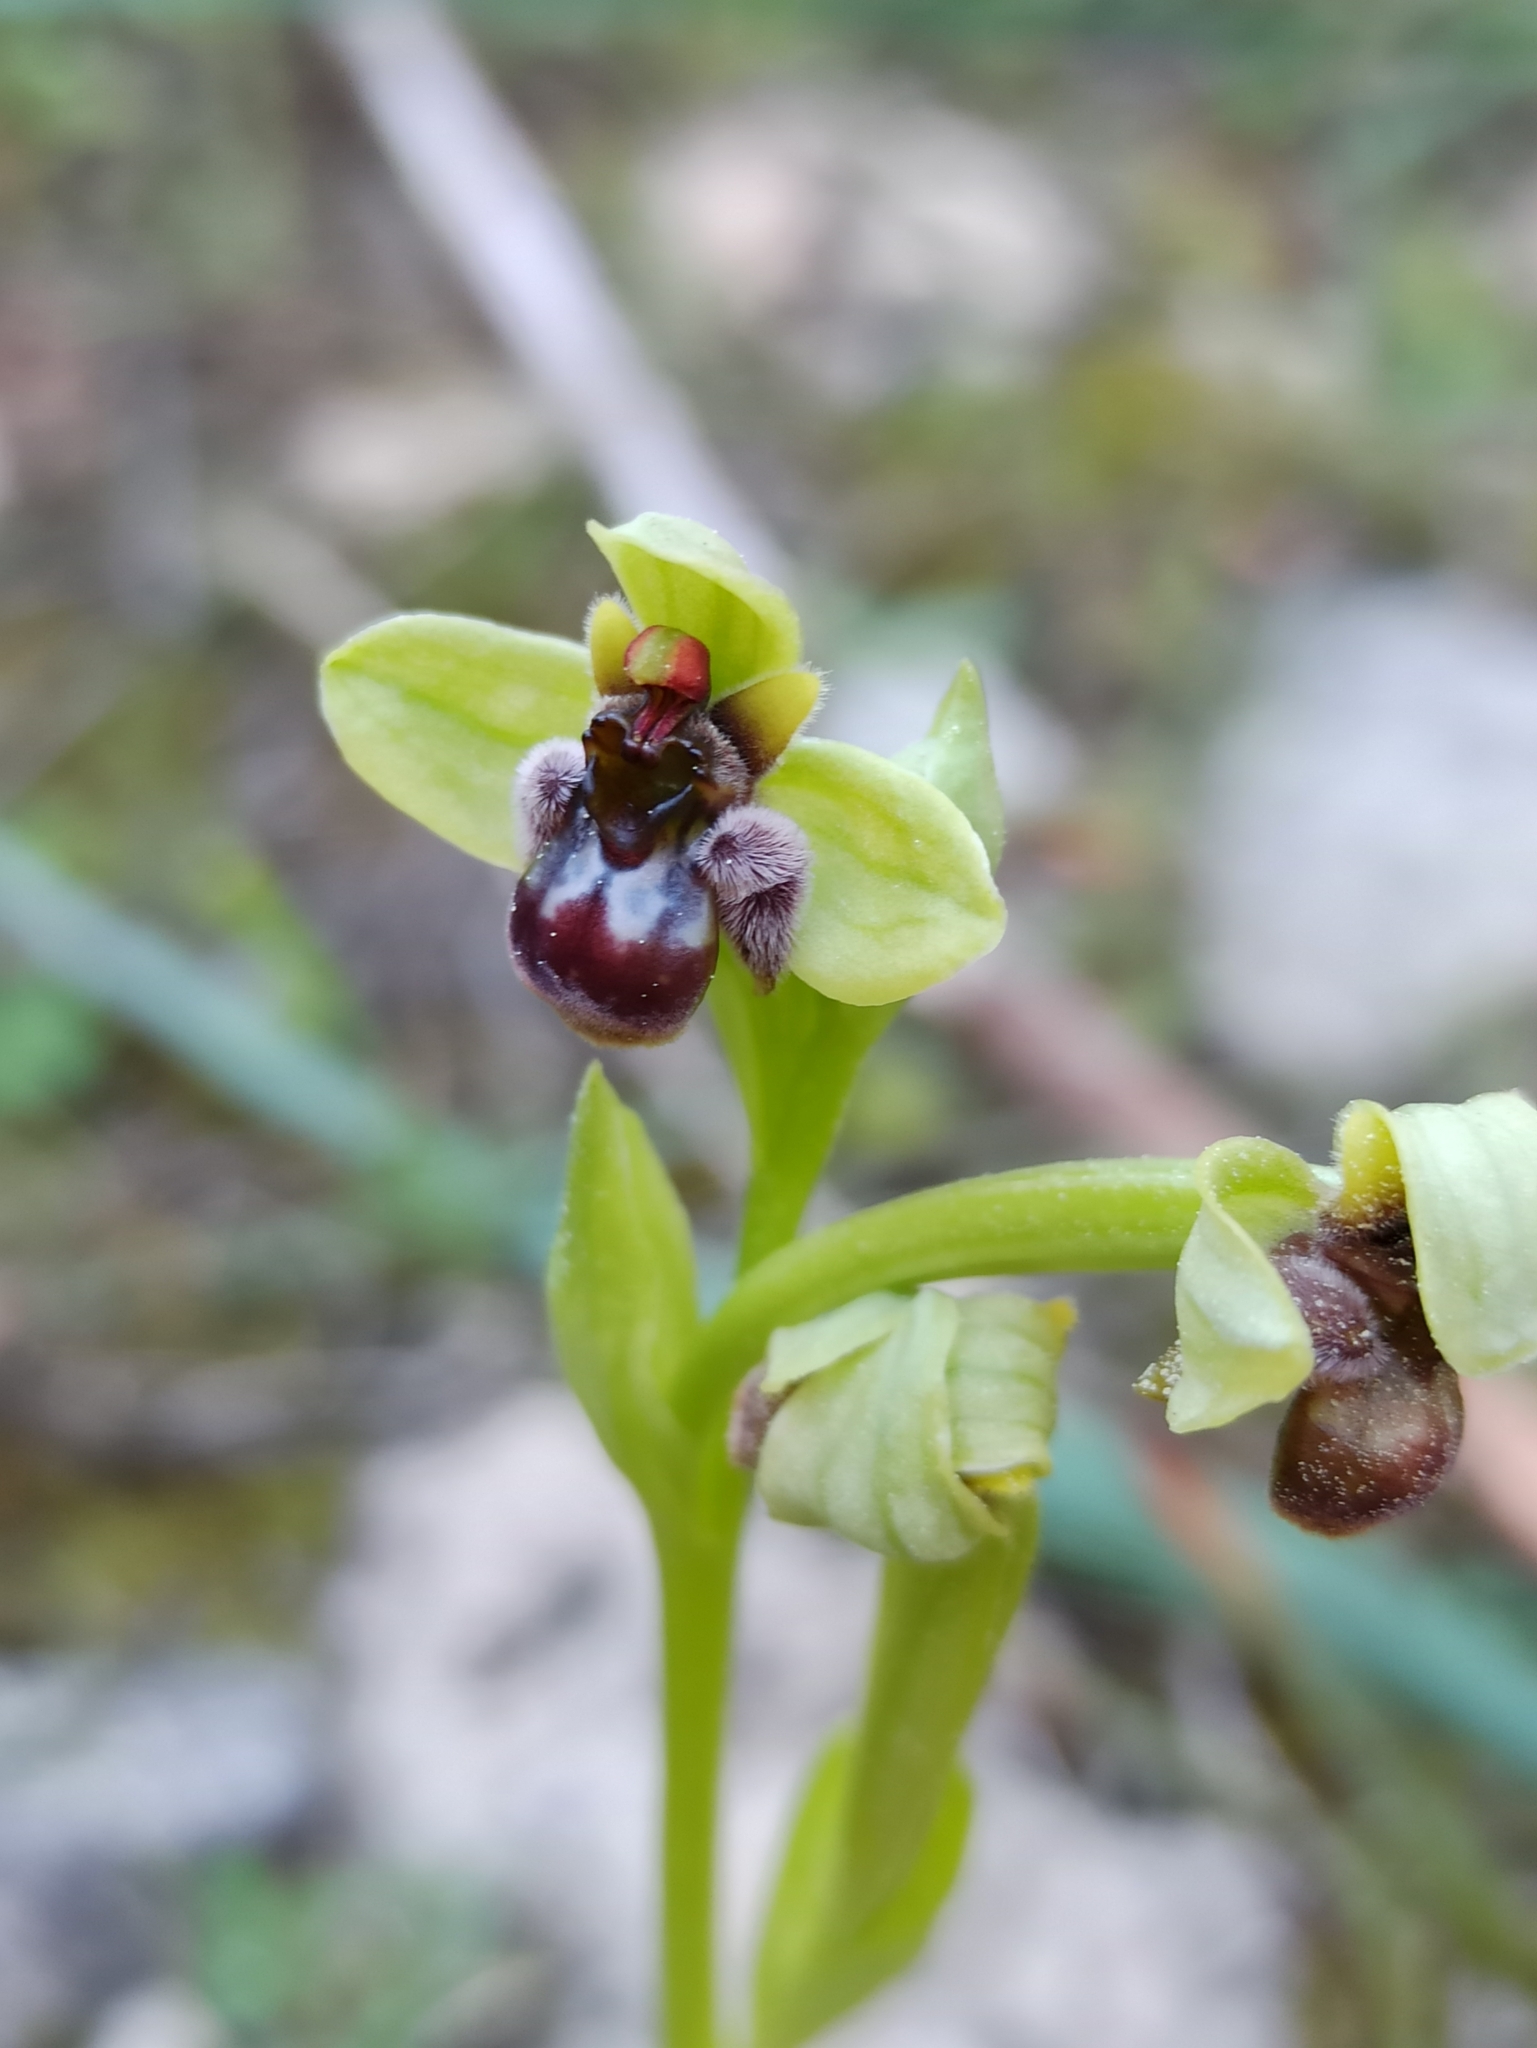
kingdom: Plantae
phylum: Tracheophyta
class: Liliopsida
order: Asparagales
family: Orchidaceae
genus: Ophrys
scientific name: Ophrys bombyliflora
